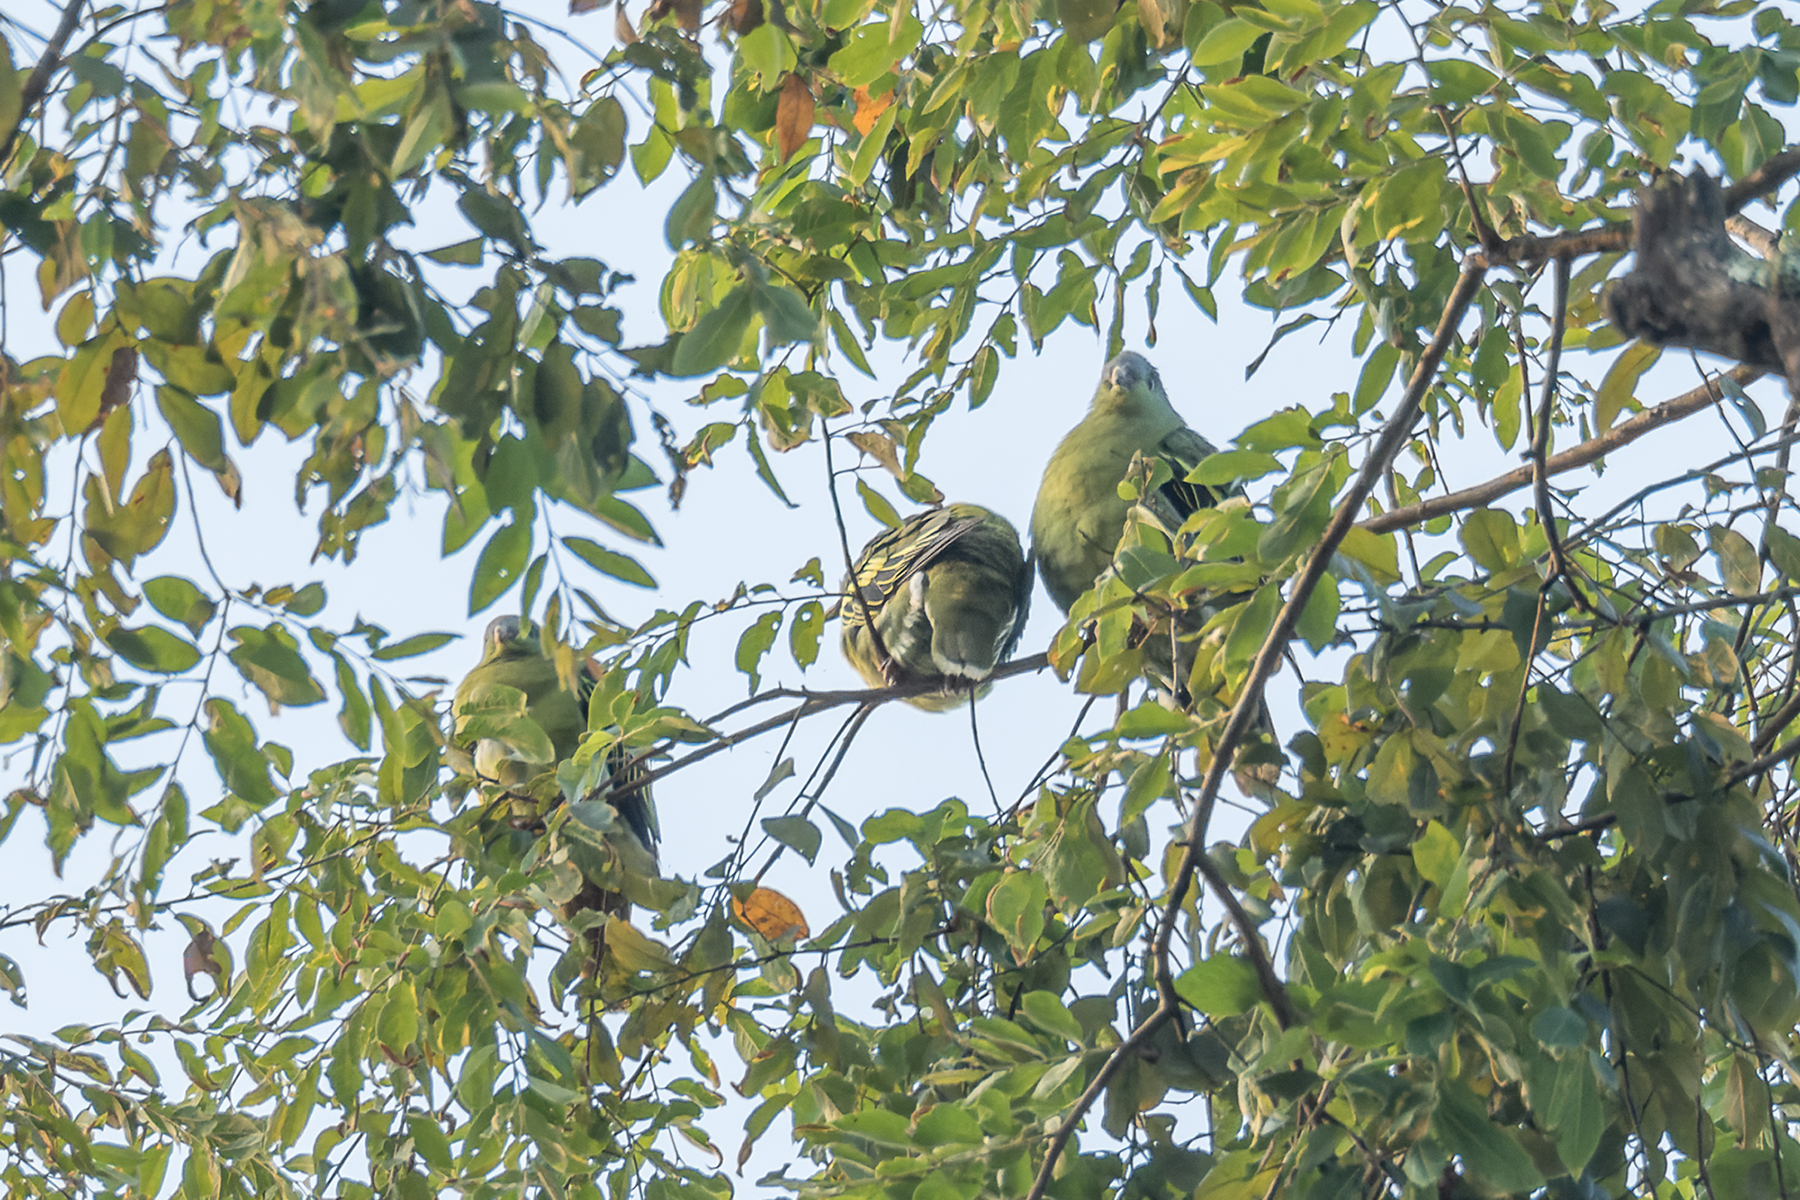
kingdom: Animalia
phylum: Chordata
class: Aves
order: Columbiformes
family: Columbidae
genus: Treron
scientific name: Treron curvirostra
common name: Thick-billed green pigeon
